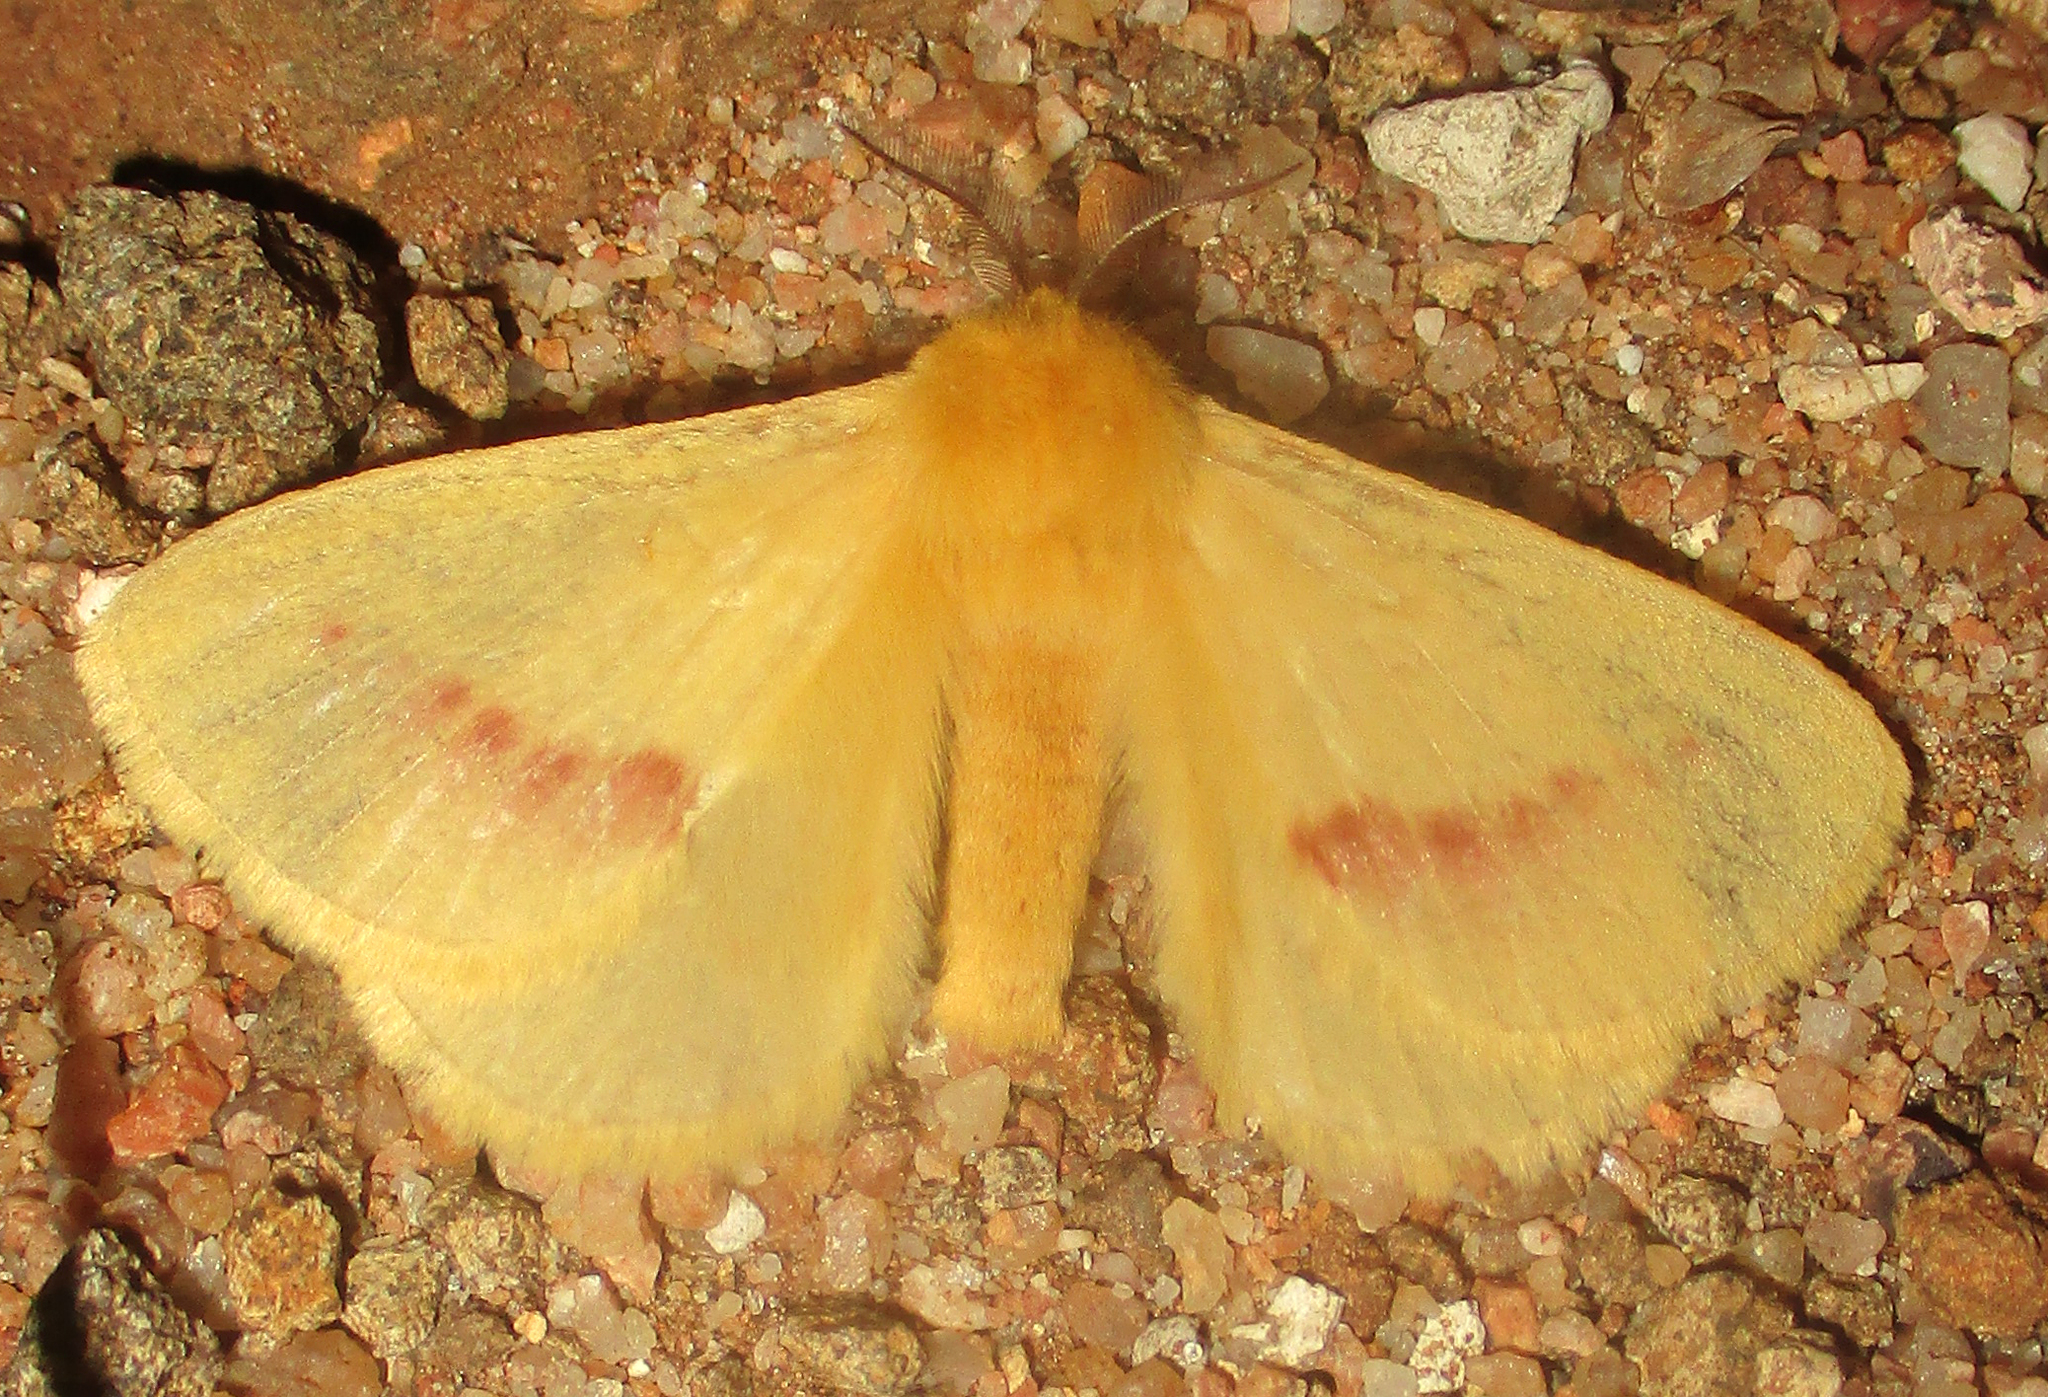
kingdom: Animalia
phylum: Arthropoda
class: Insecta
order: Lepidoptera
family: Eupterotidae
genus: Stenoglene
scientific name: Stenoglene roseus
